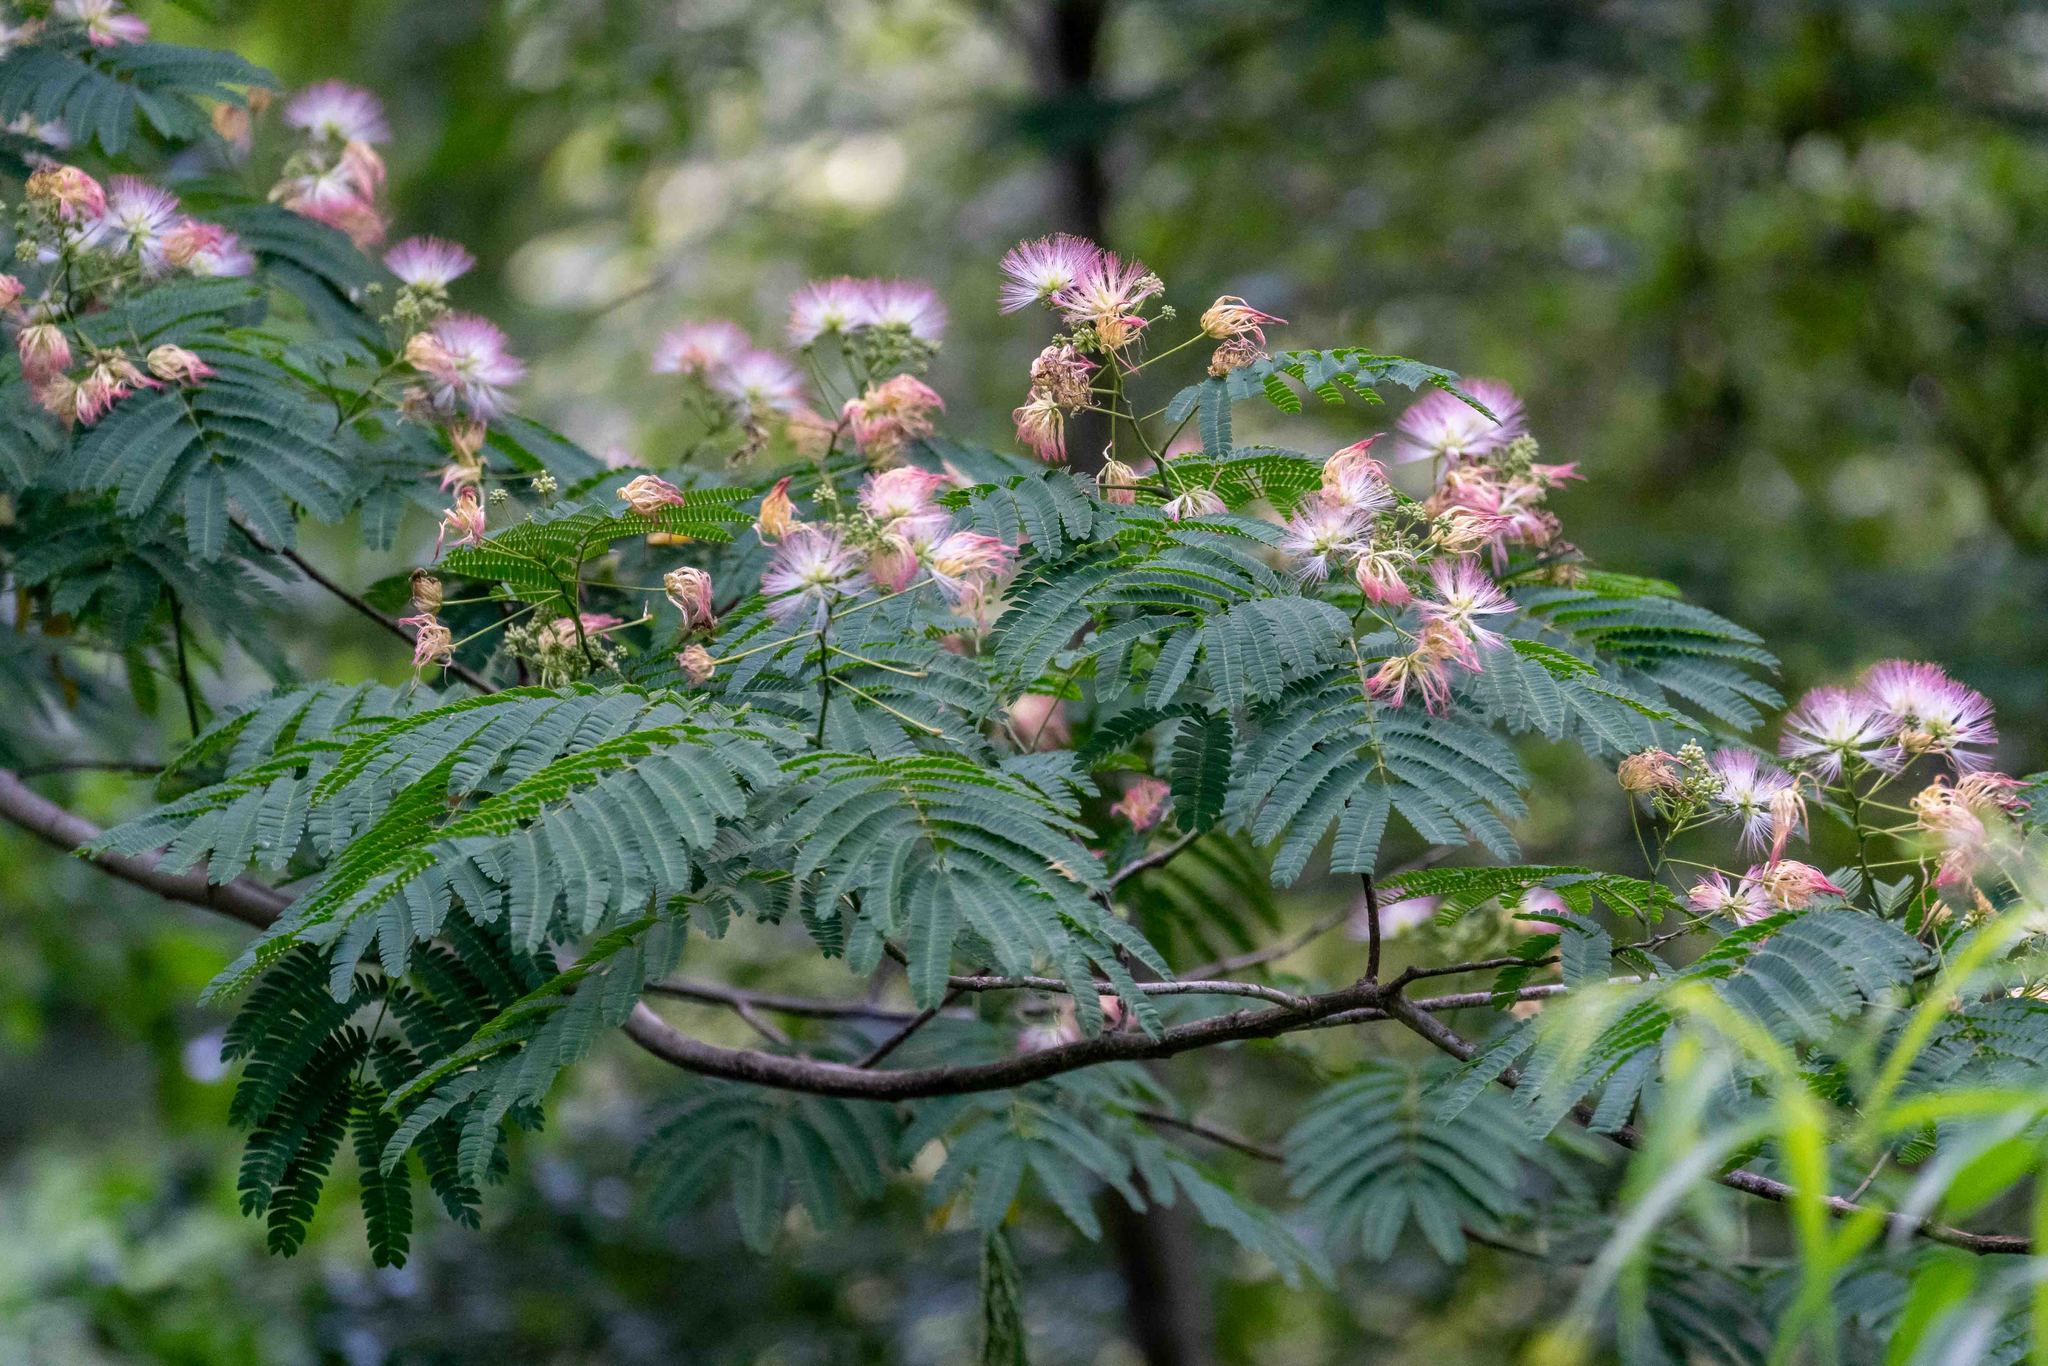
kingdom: Plantae
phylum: Tracheophyta
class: Magnoliopsida
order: Fabales
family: Fabaceae
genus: Albizia
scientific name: Albizia julibrissin
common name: Silktree
